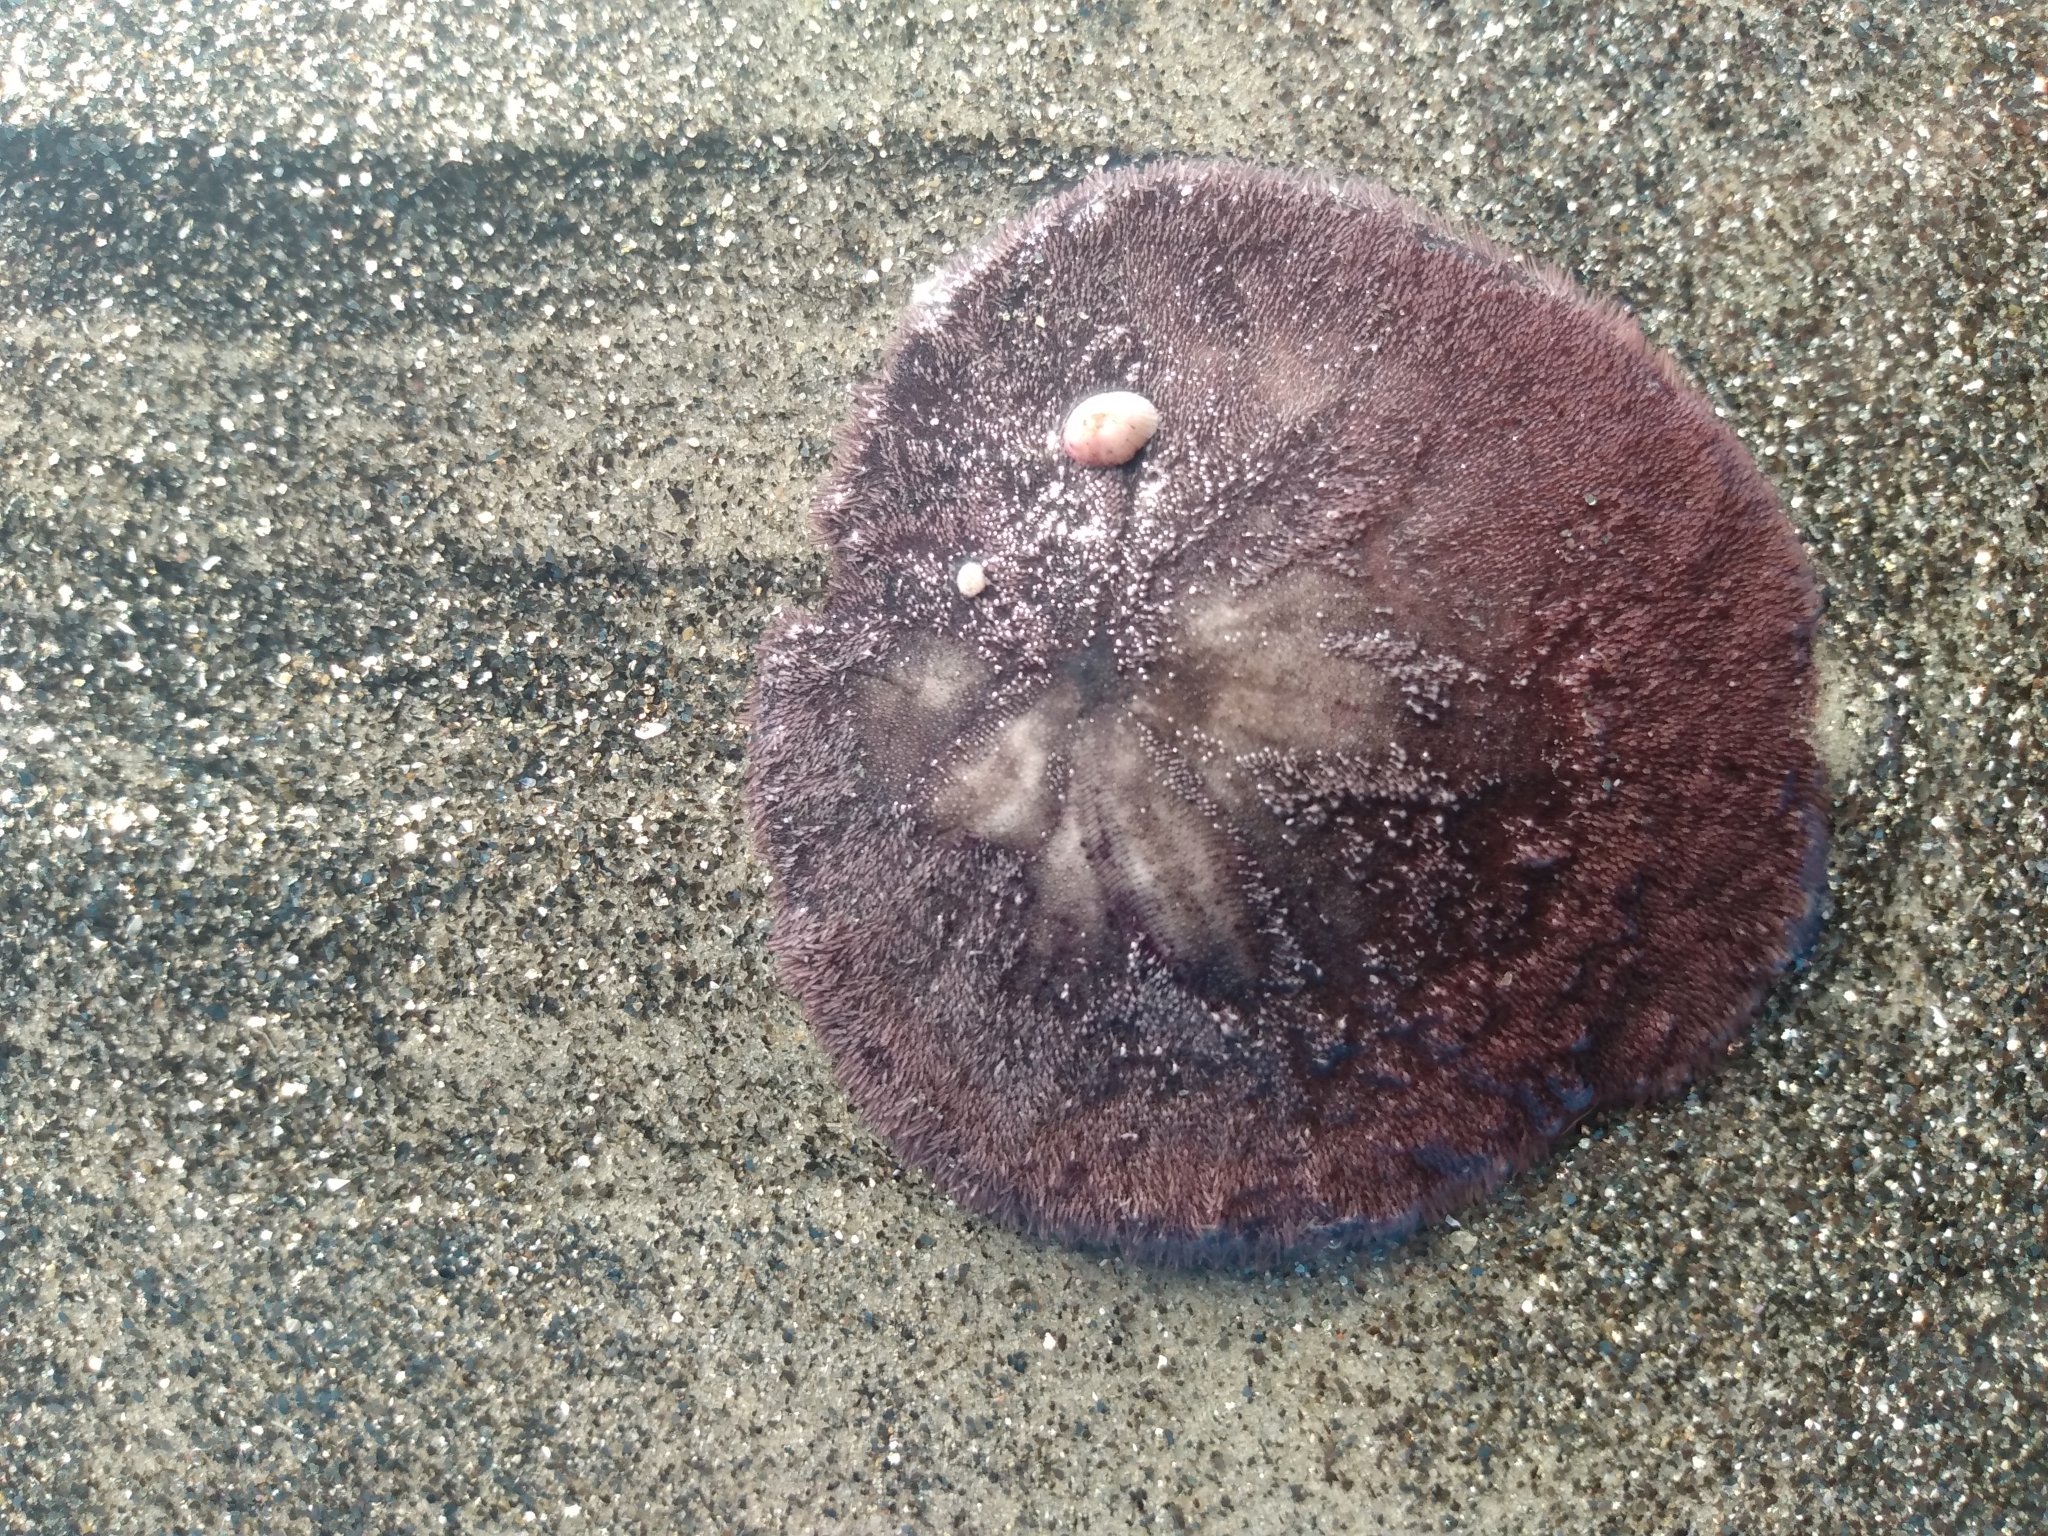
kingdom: Animalia
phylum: Echinodermata
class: Echinoidea
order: Echinolampadacea
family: Dendrasteridae
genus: Dendraster
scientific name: Dendraster excentricus
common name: Eccentric sand dollar sea urchin
